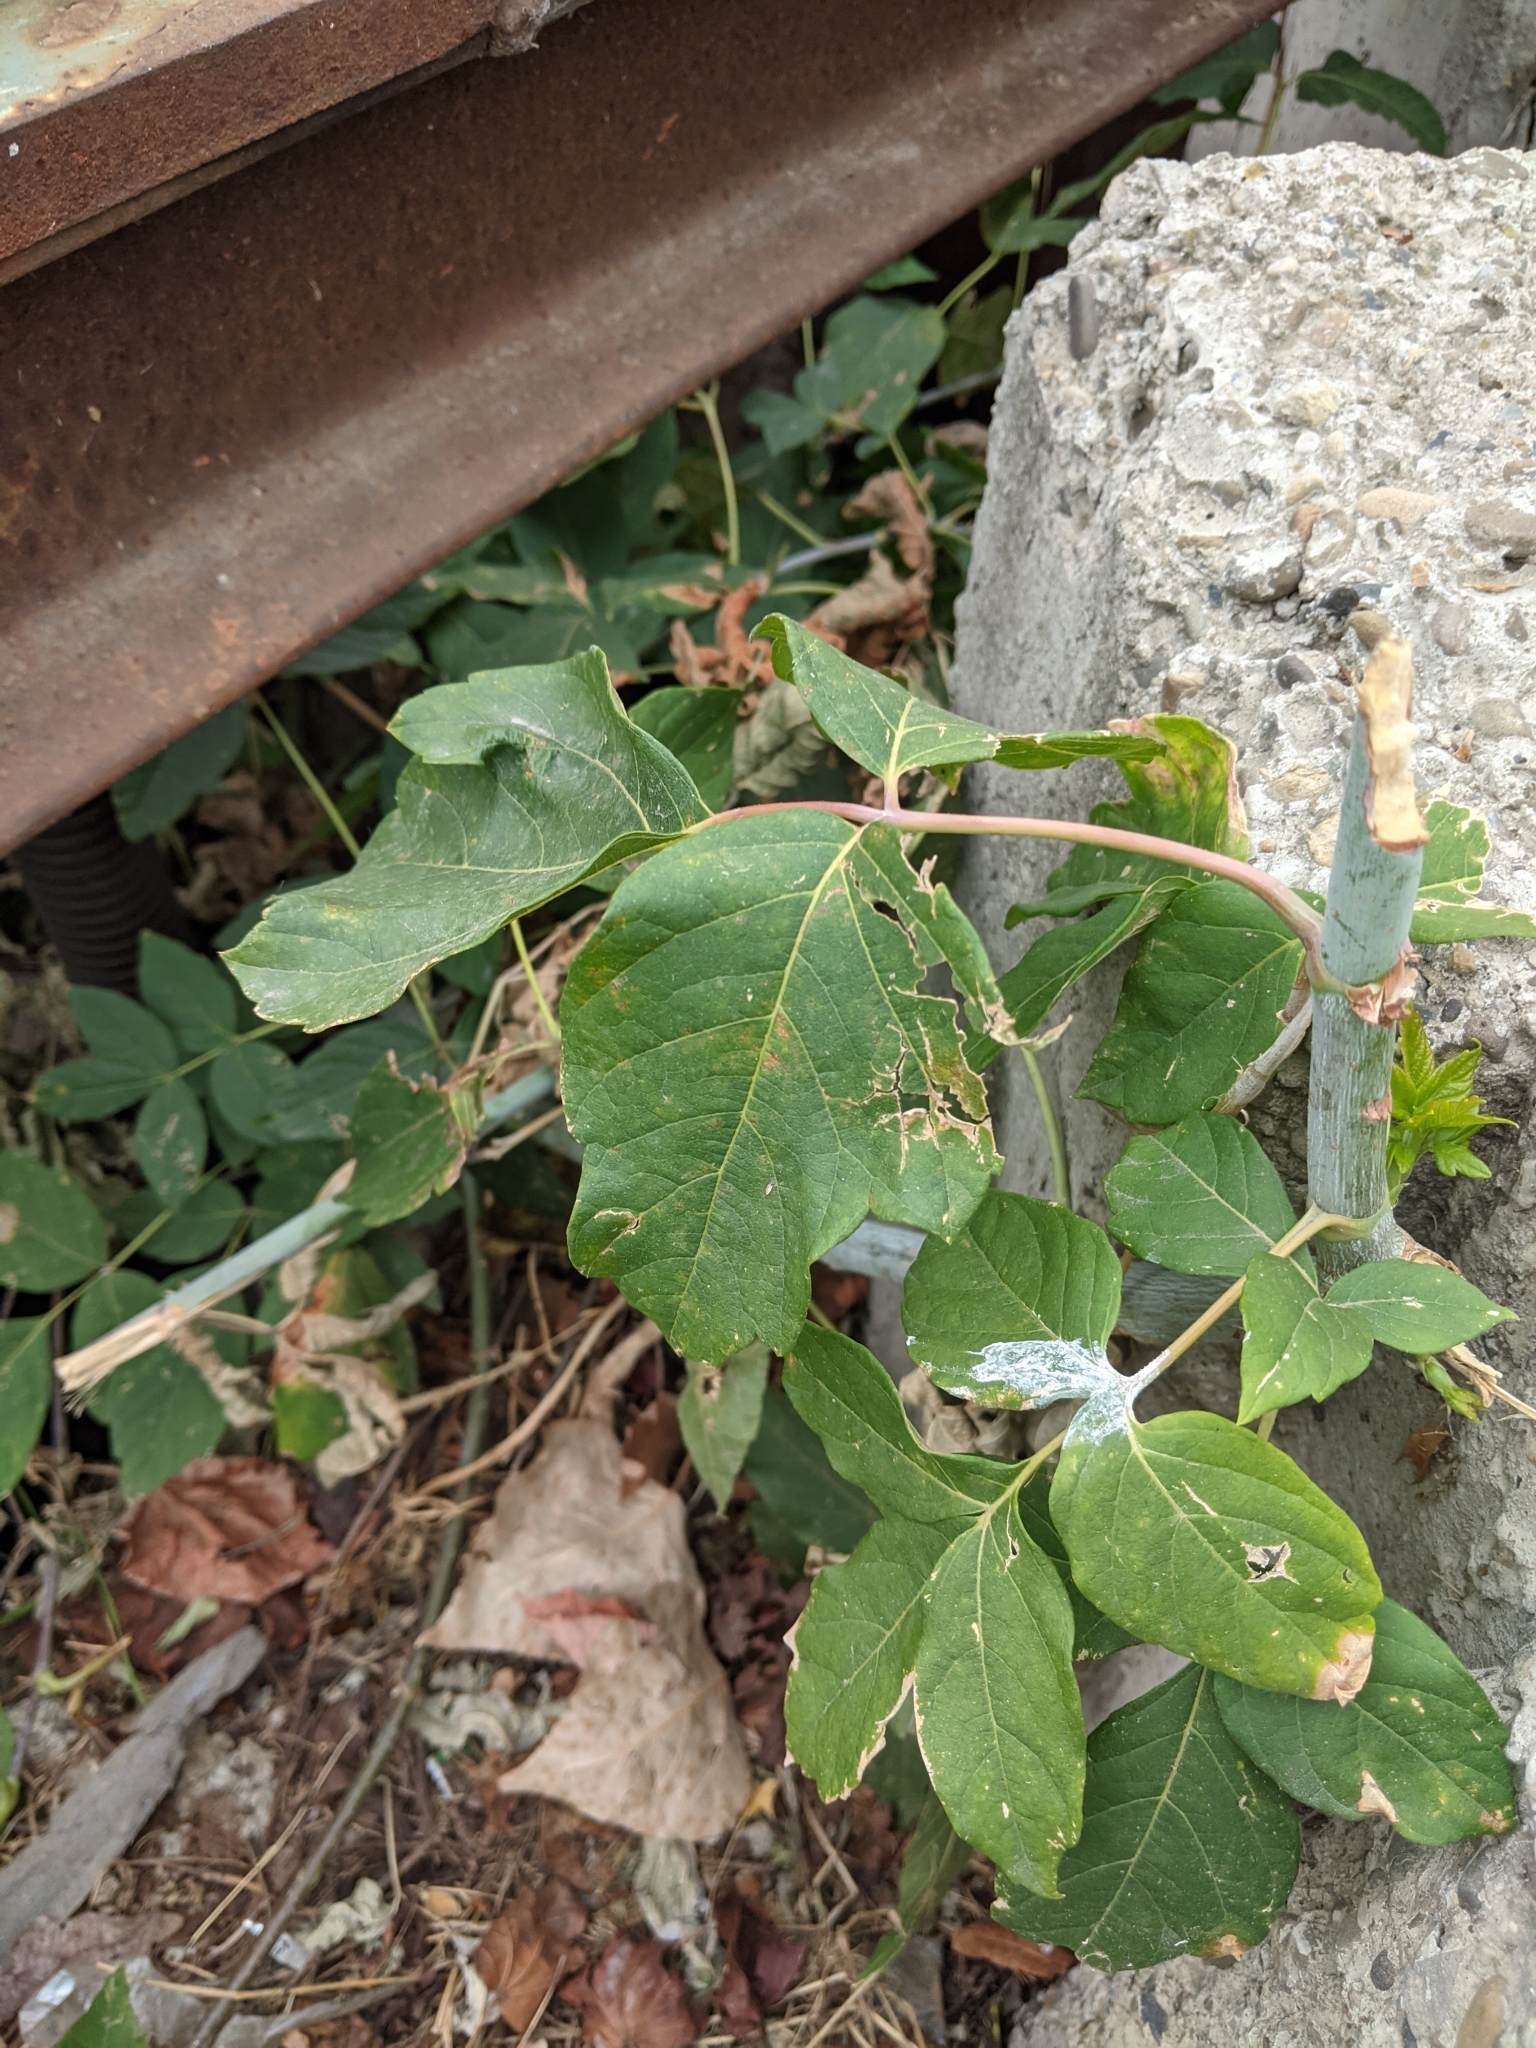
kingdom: Plantae
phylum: Tracheophyta
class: Magnoliopsida
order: Sapindales
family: Sapindaceae
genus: Acer
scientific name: Acer negundo
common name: Ashleaf maple
